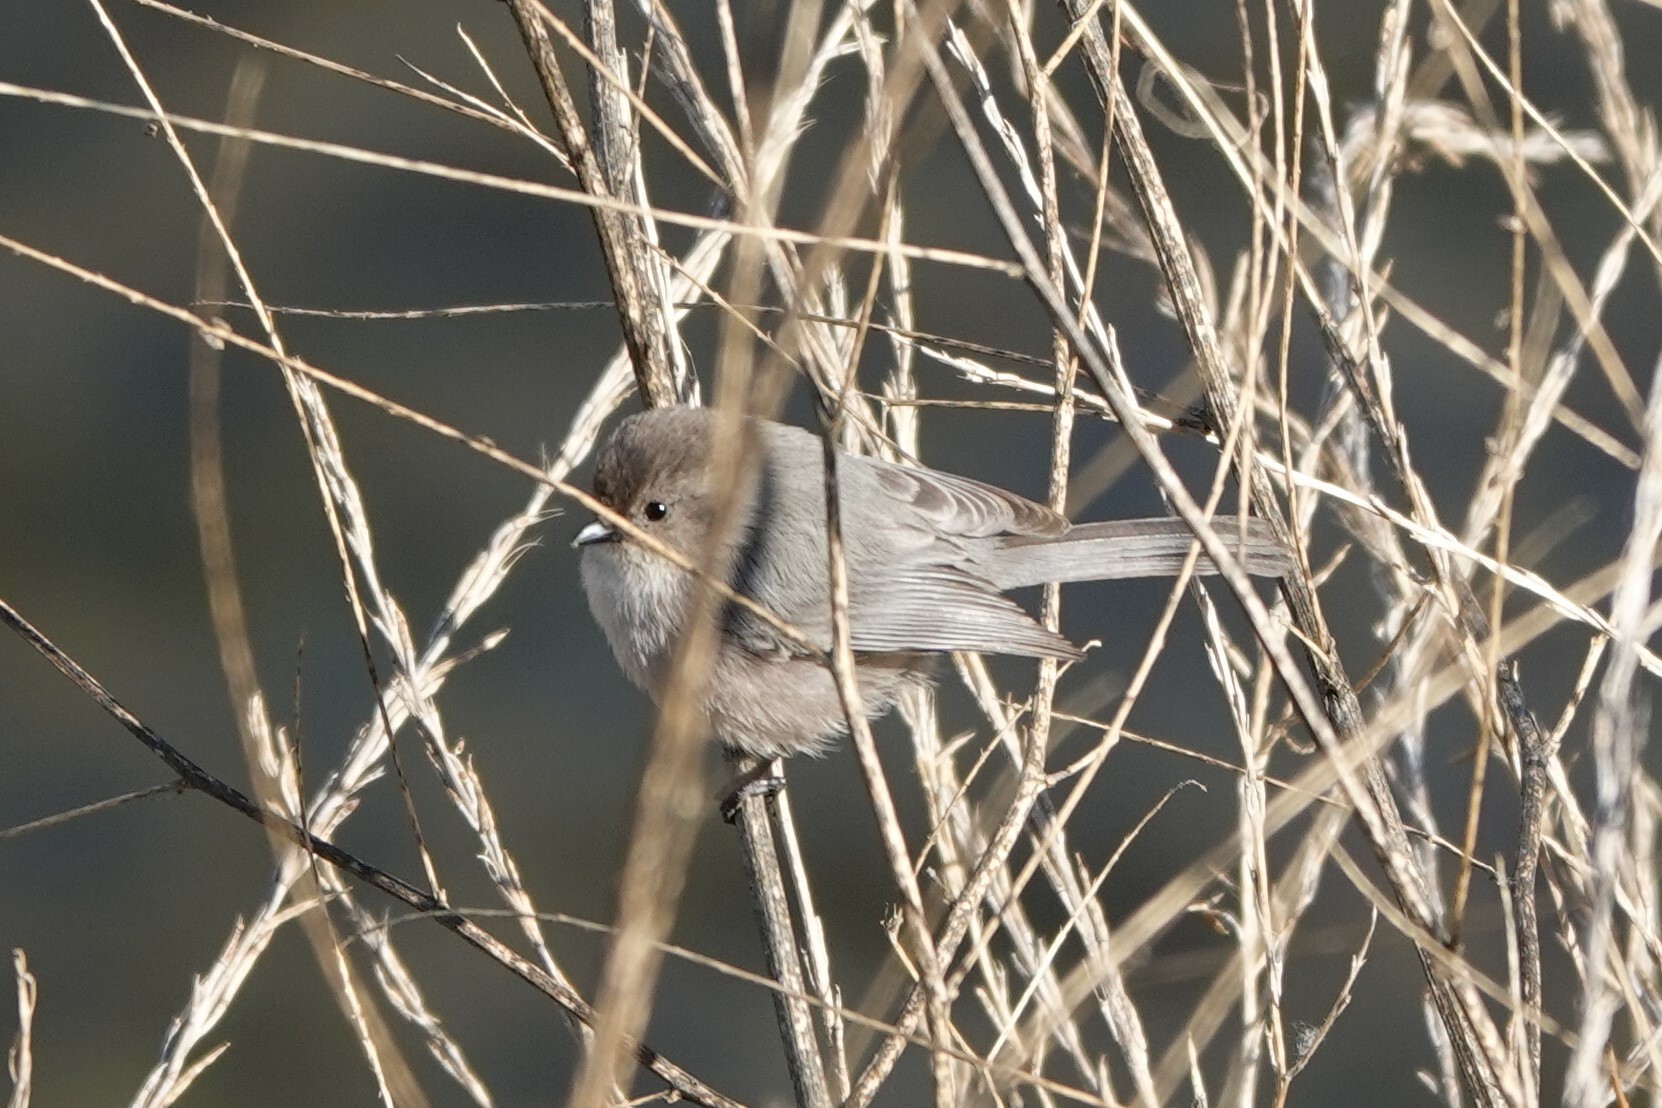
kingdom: Animalia
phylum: Chordata
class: Aves
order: Passeriformes
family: Aegithalidae
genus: Psaltriparus
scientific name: Psaltriparus minimus
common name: American bushtit
